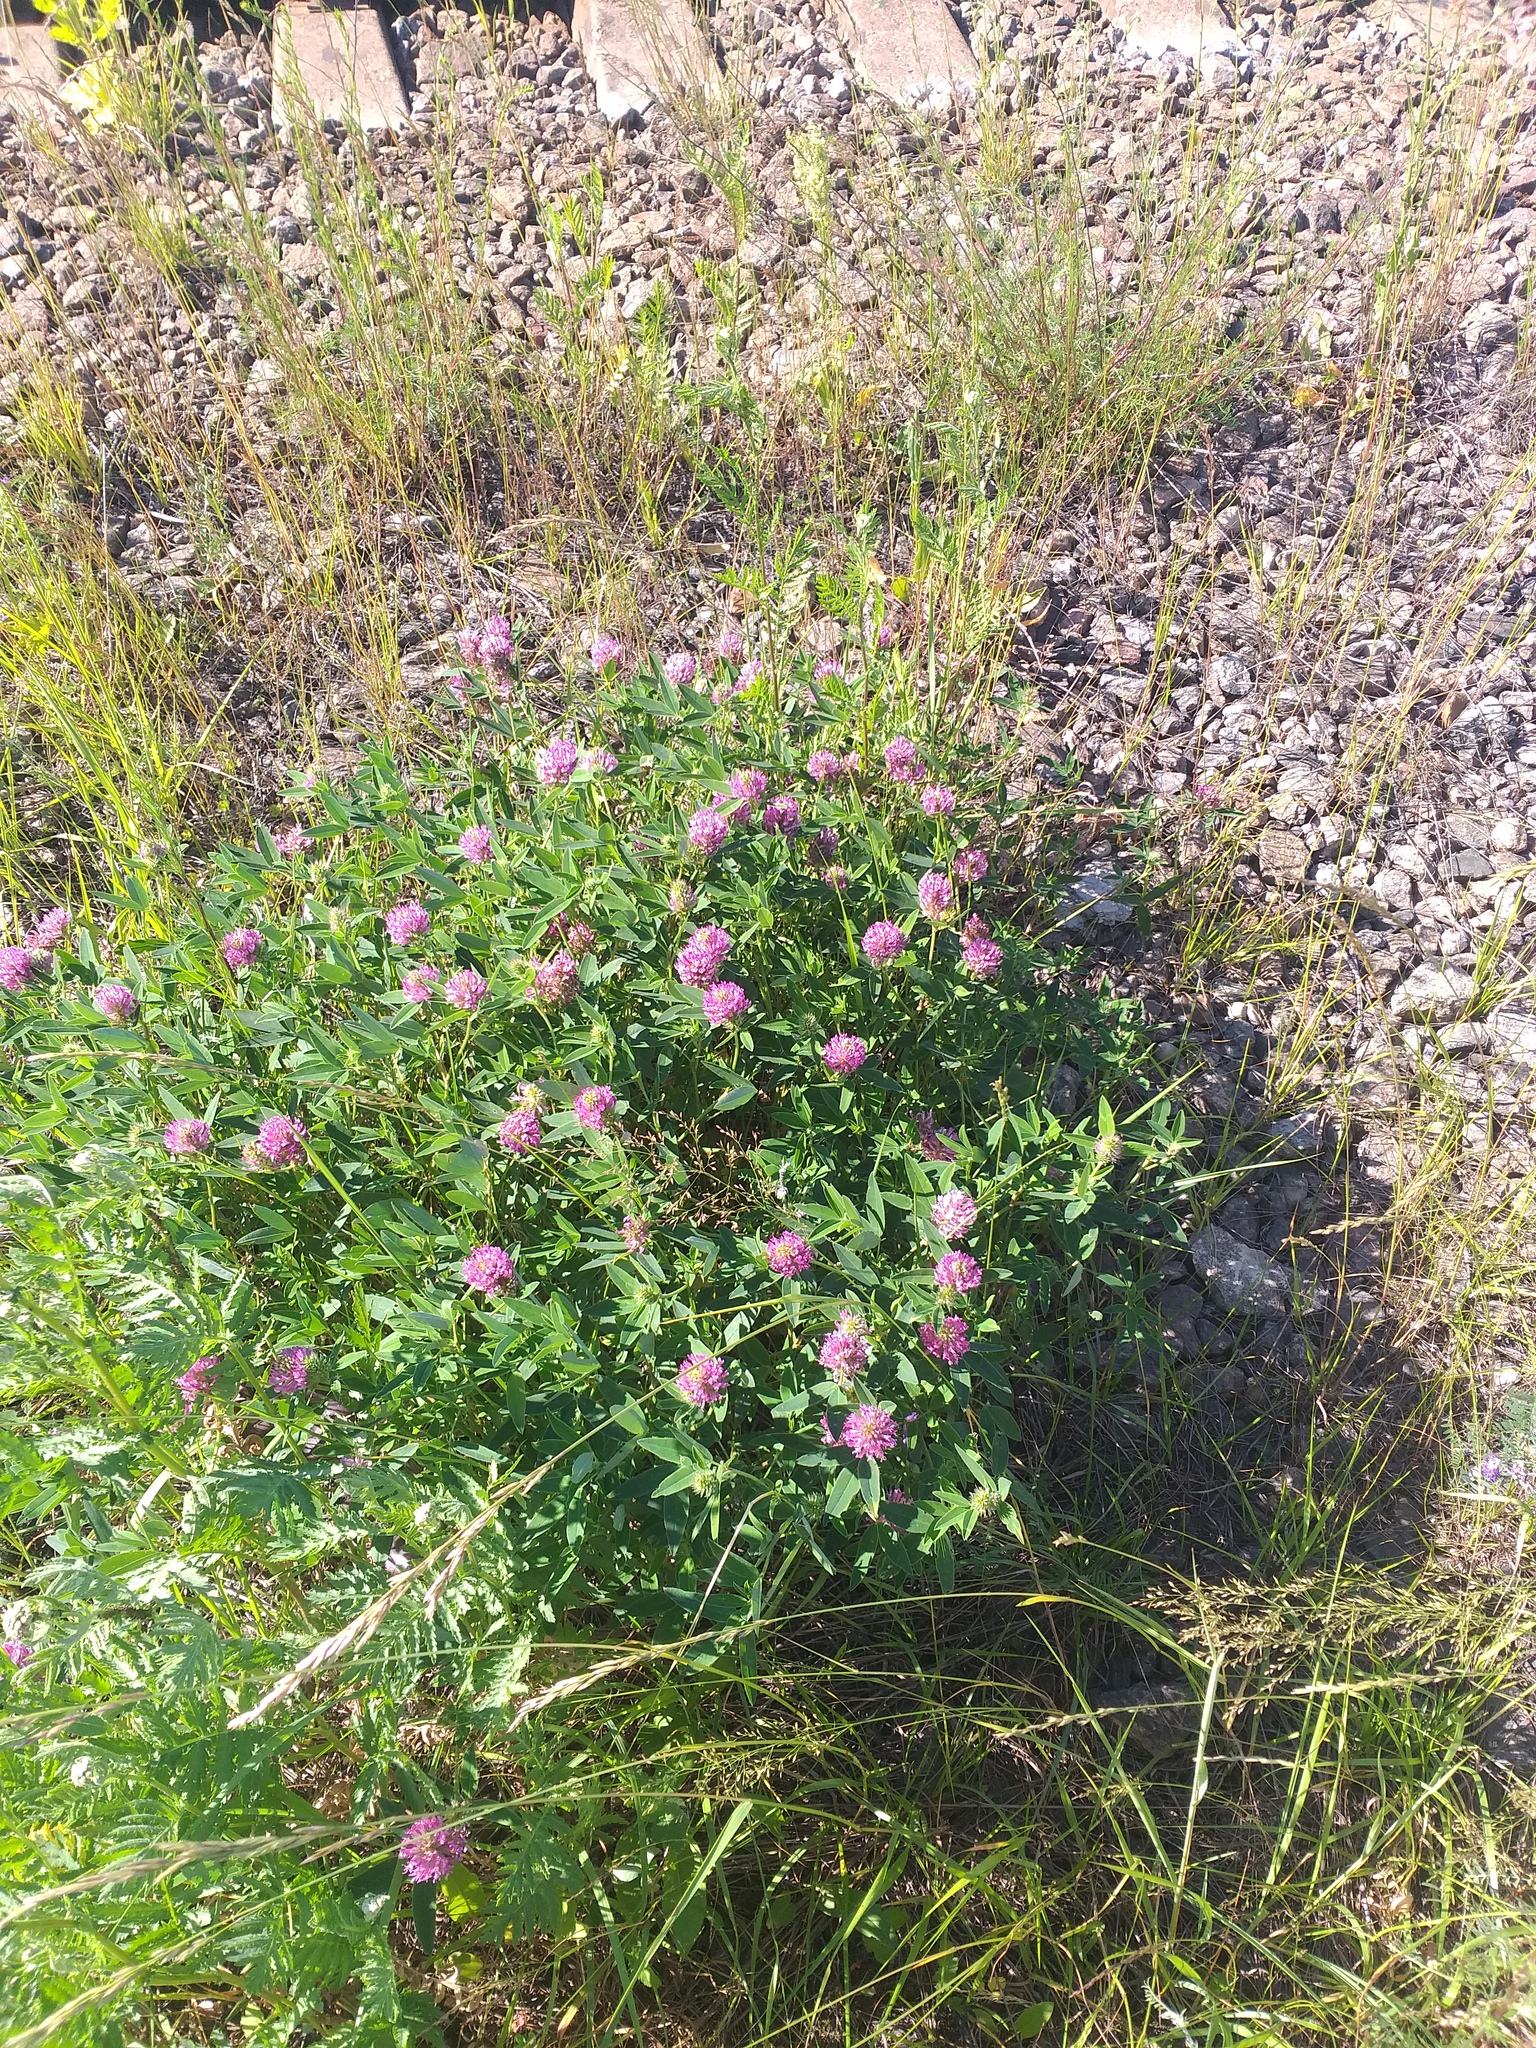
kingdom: Plantae
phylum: Tracheophyta
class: Magnoliopsida
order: Fabales
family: Fabaceae
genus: Trifolium
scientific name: Trifolium medium
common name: Zigzag clover
